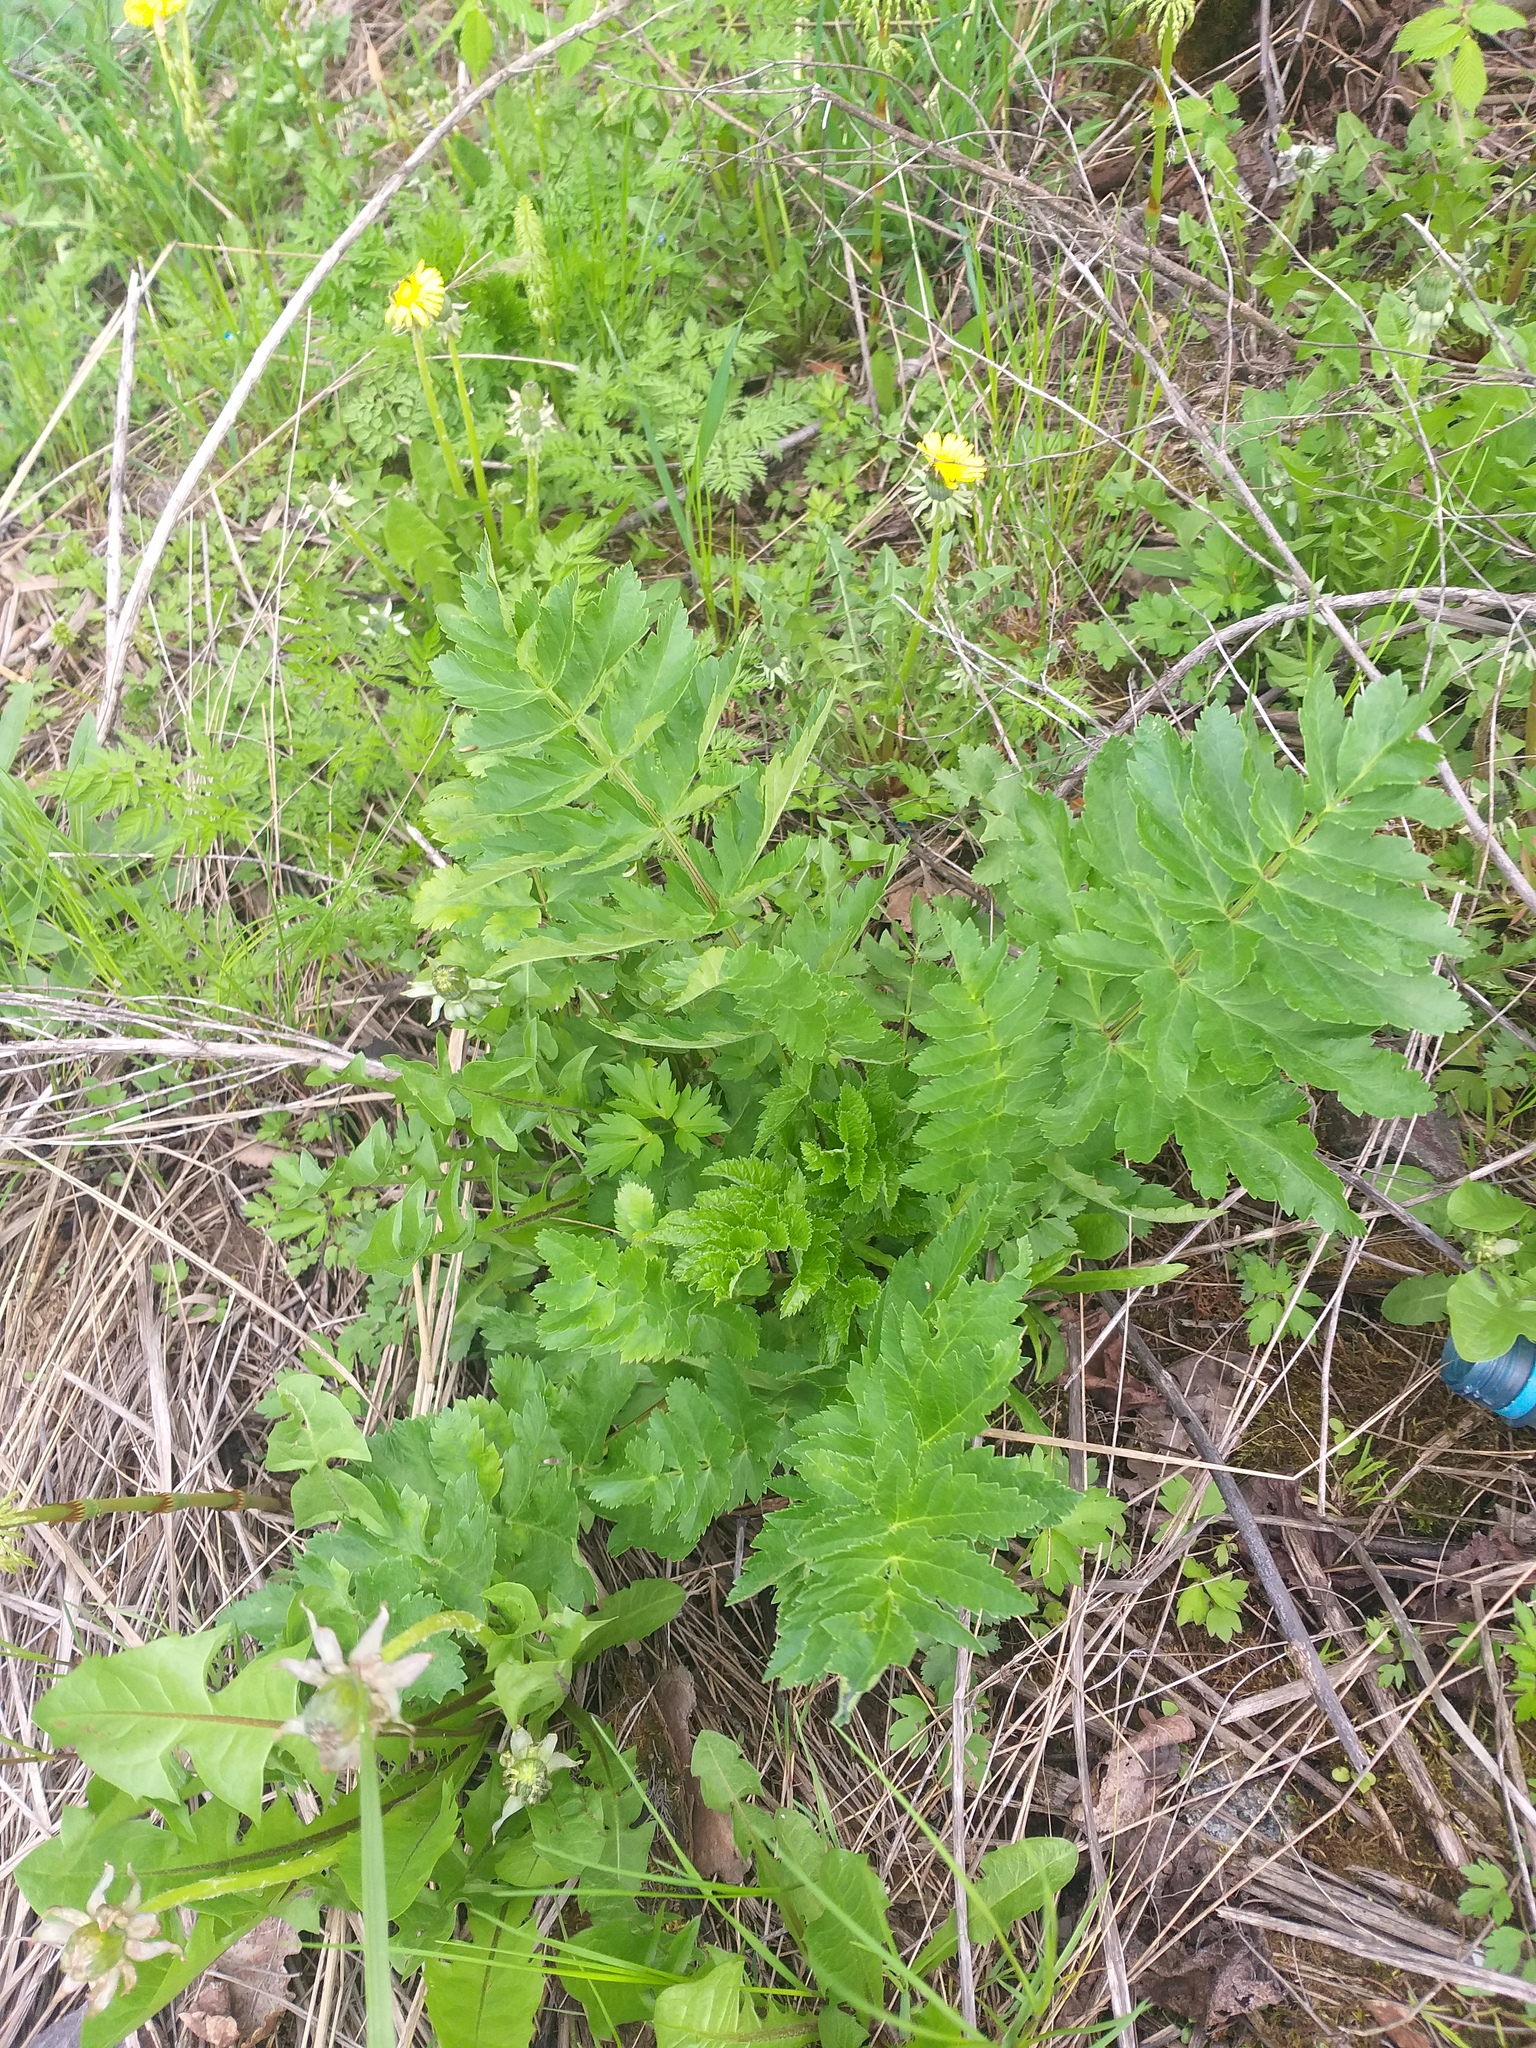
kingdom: Plantae
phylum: Tracheophyta
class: Magnoliopsida
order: Apiales
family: Apiaceae
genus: Pastinaca
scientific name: Pastinaca sativa
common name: Wild parsnip
